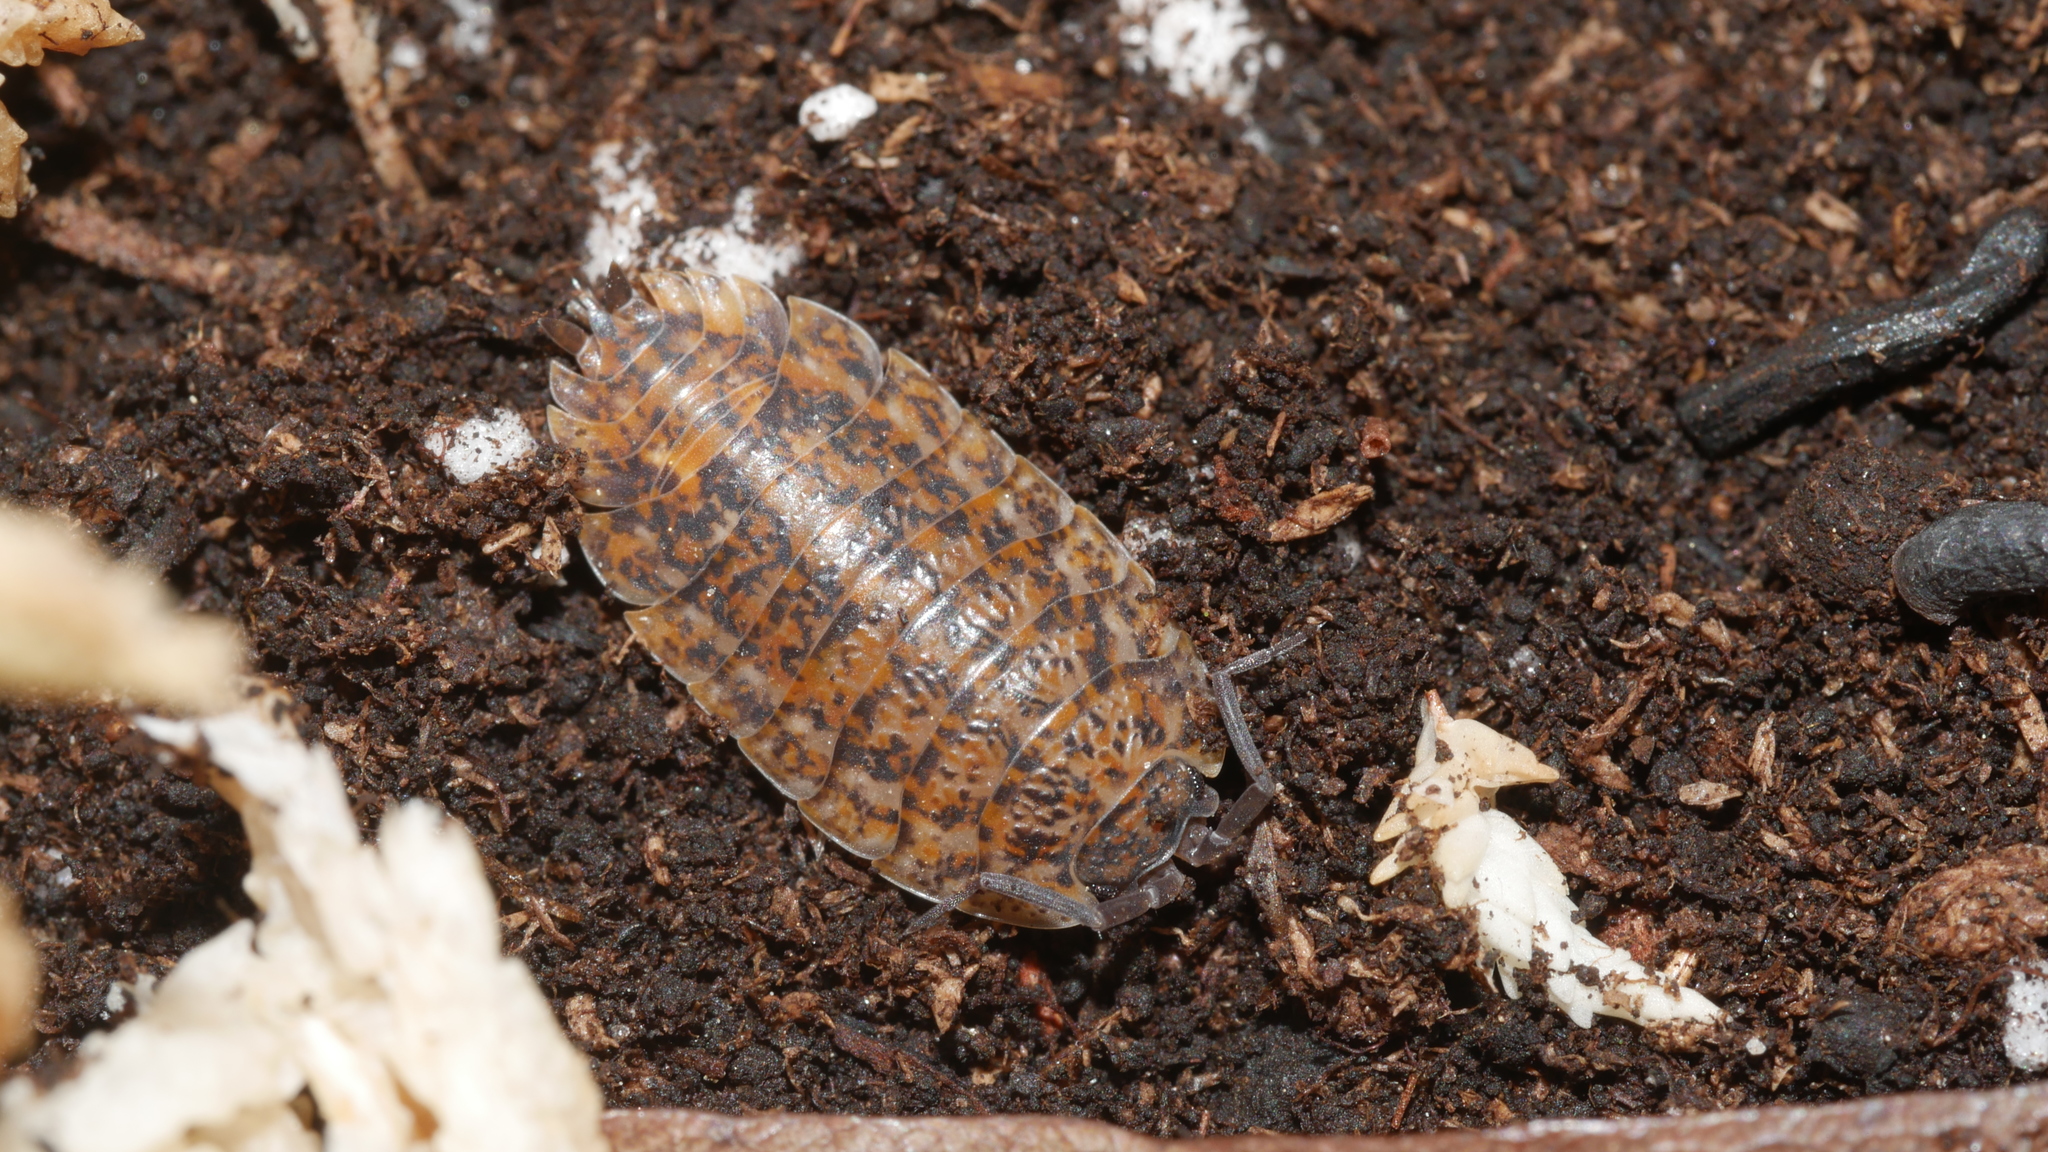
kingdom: Animalia
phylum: Arthropoda
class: Malacostraca
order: Isopoda
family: Trachelipodidae
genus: Trachelipus
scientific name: Trachelipus rathkii
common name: Isopod
